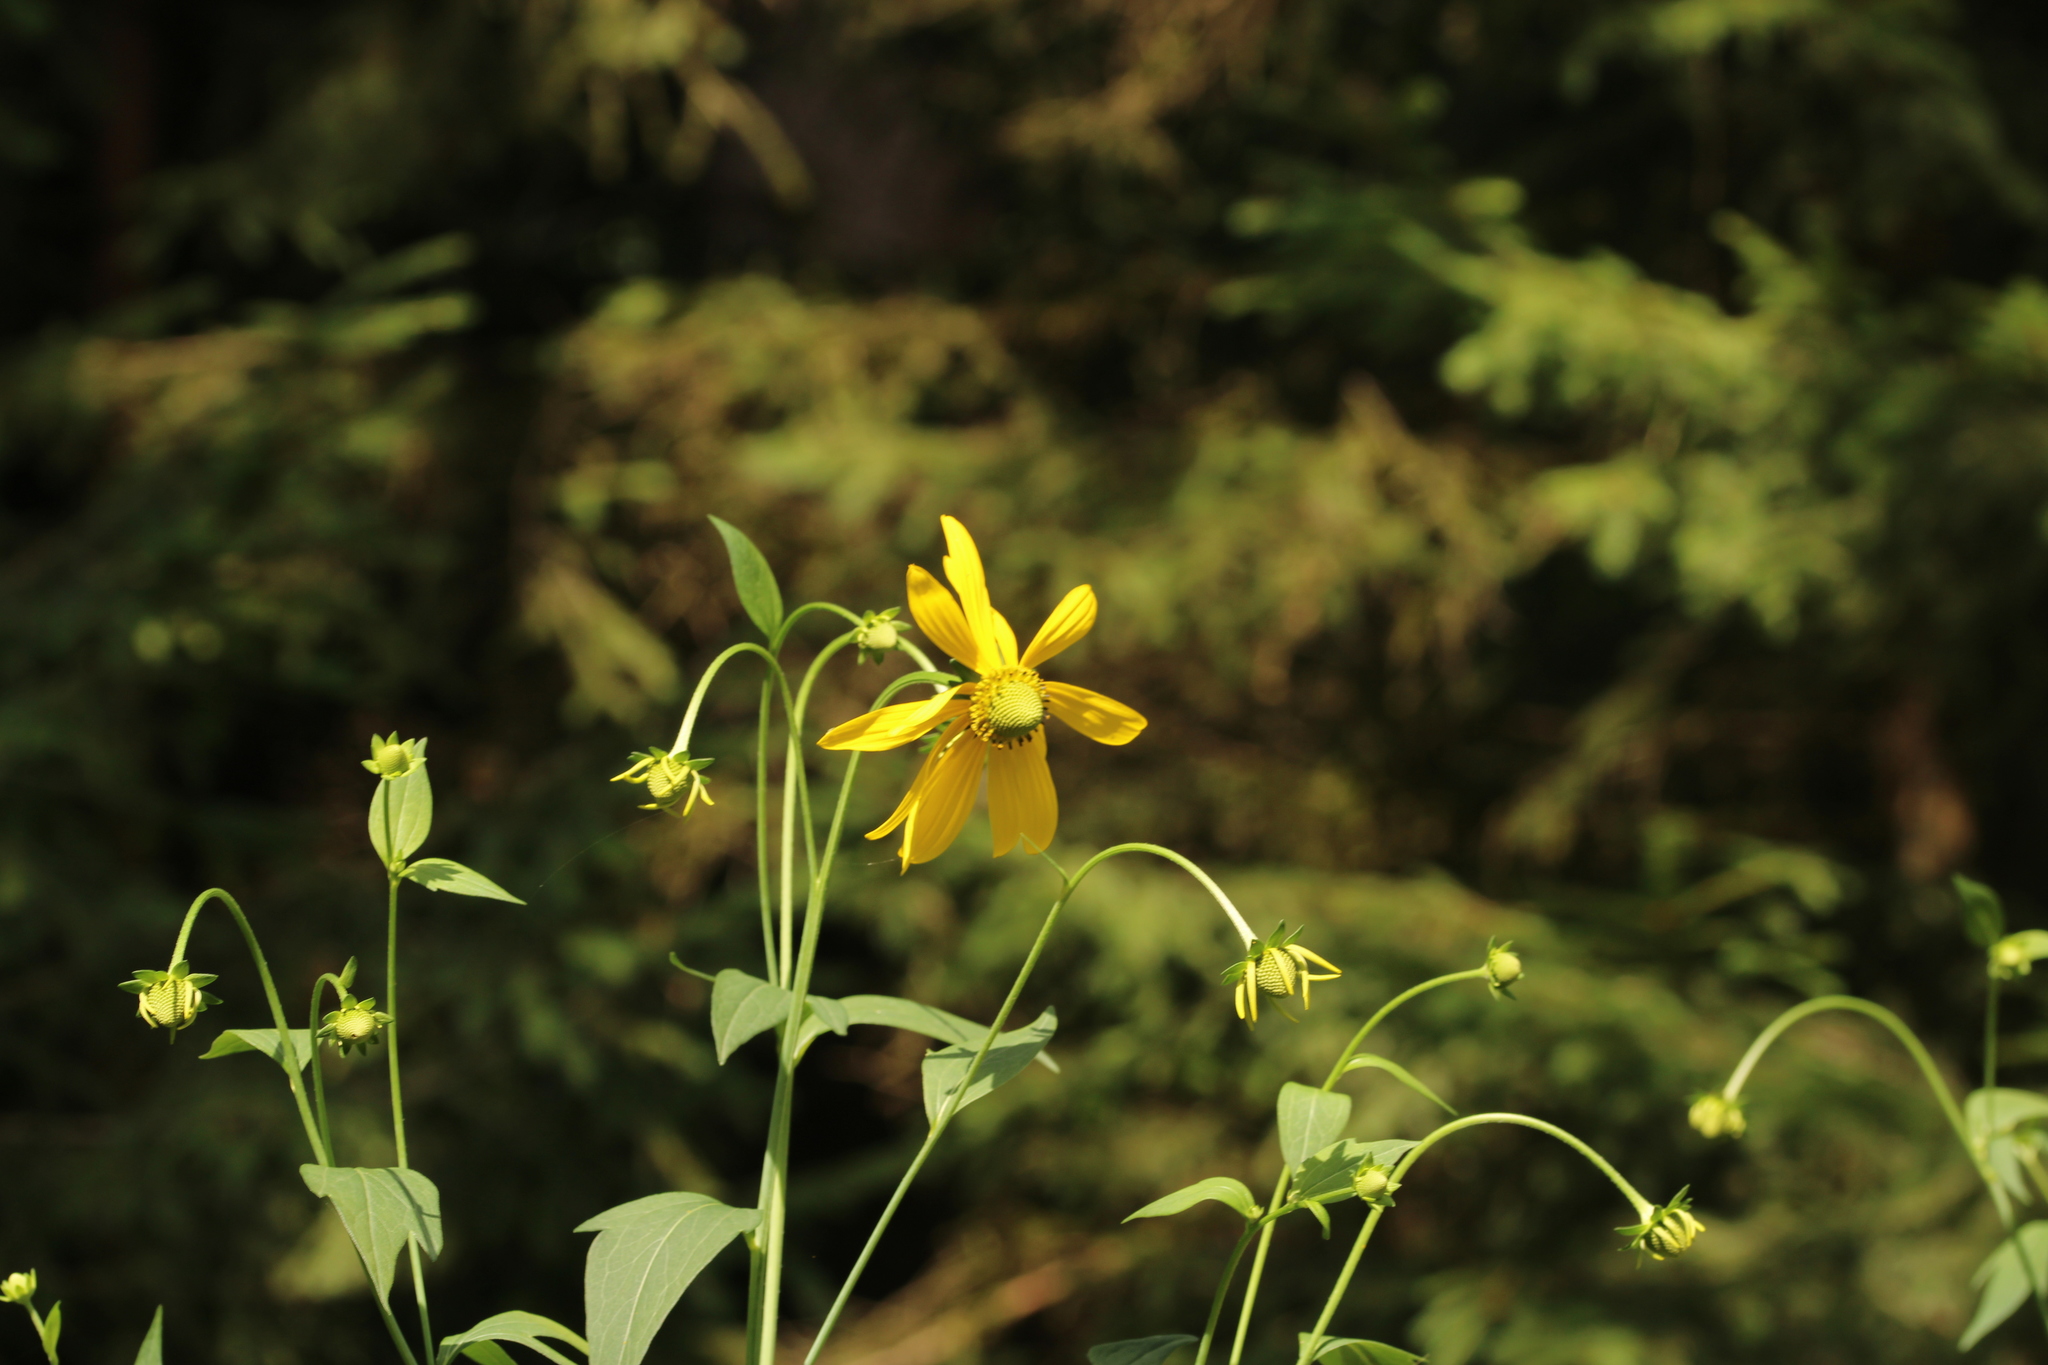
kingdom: Plantae
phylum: Tracheophyta
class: Magnoliopsida
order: Asterales
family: Asteraceae
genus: Rudbeckia
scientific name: Rudbeckia laciniata
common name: Coneflower
